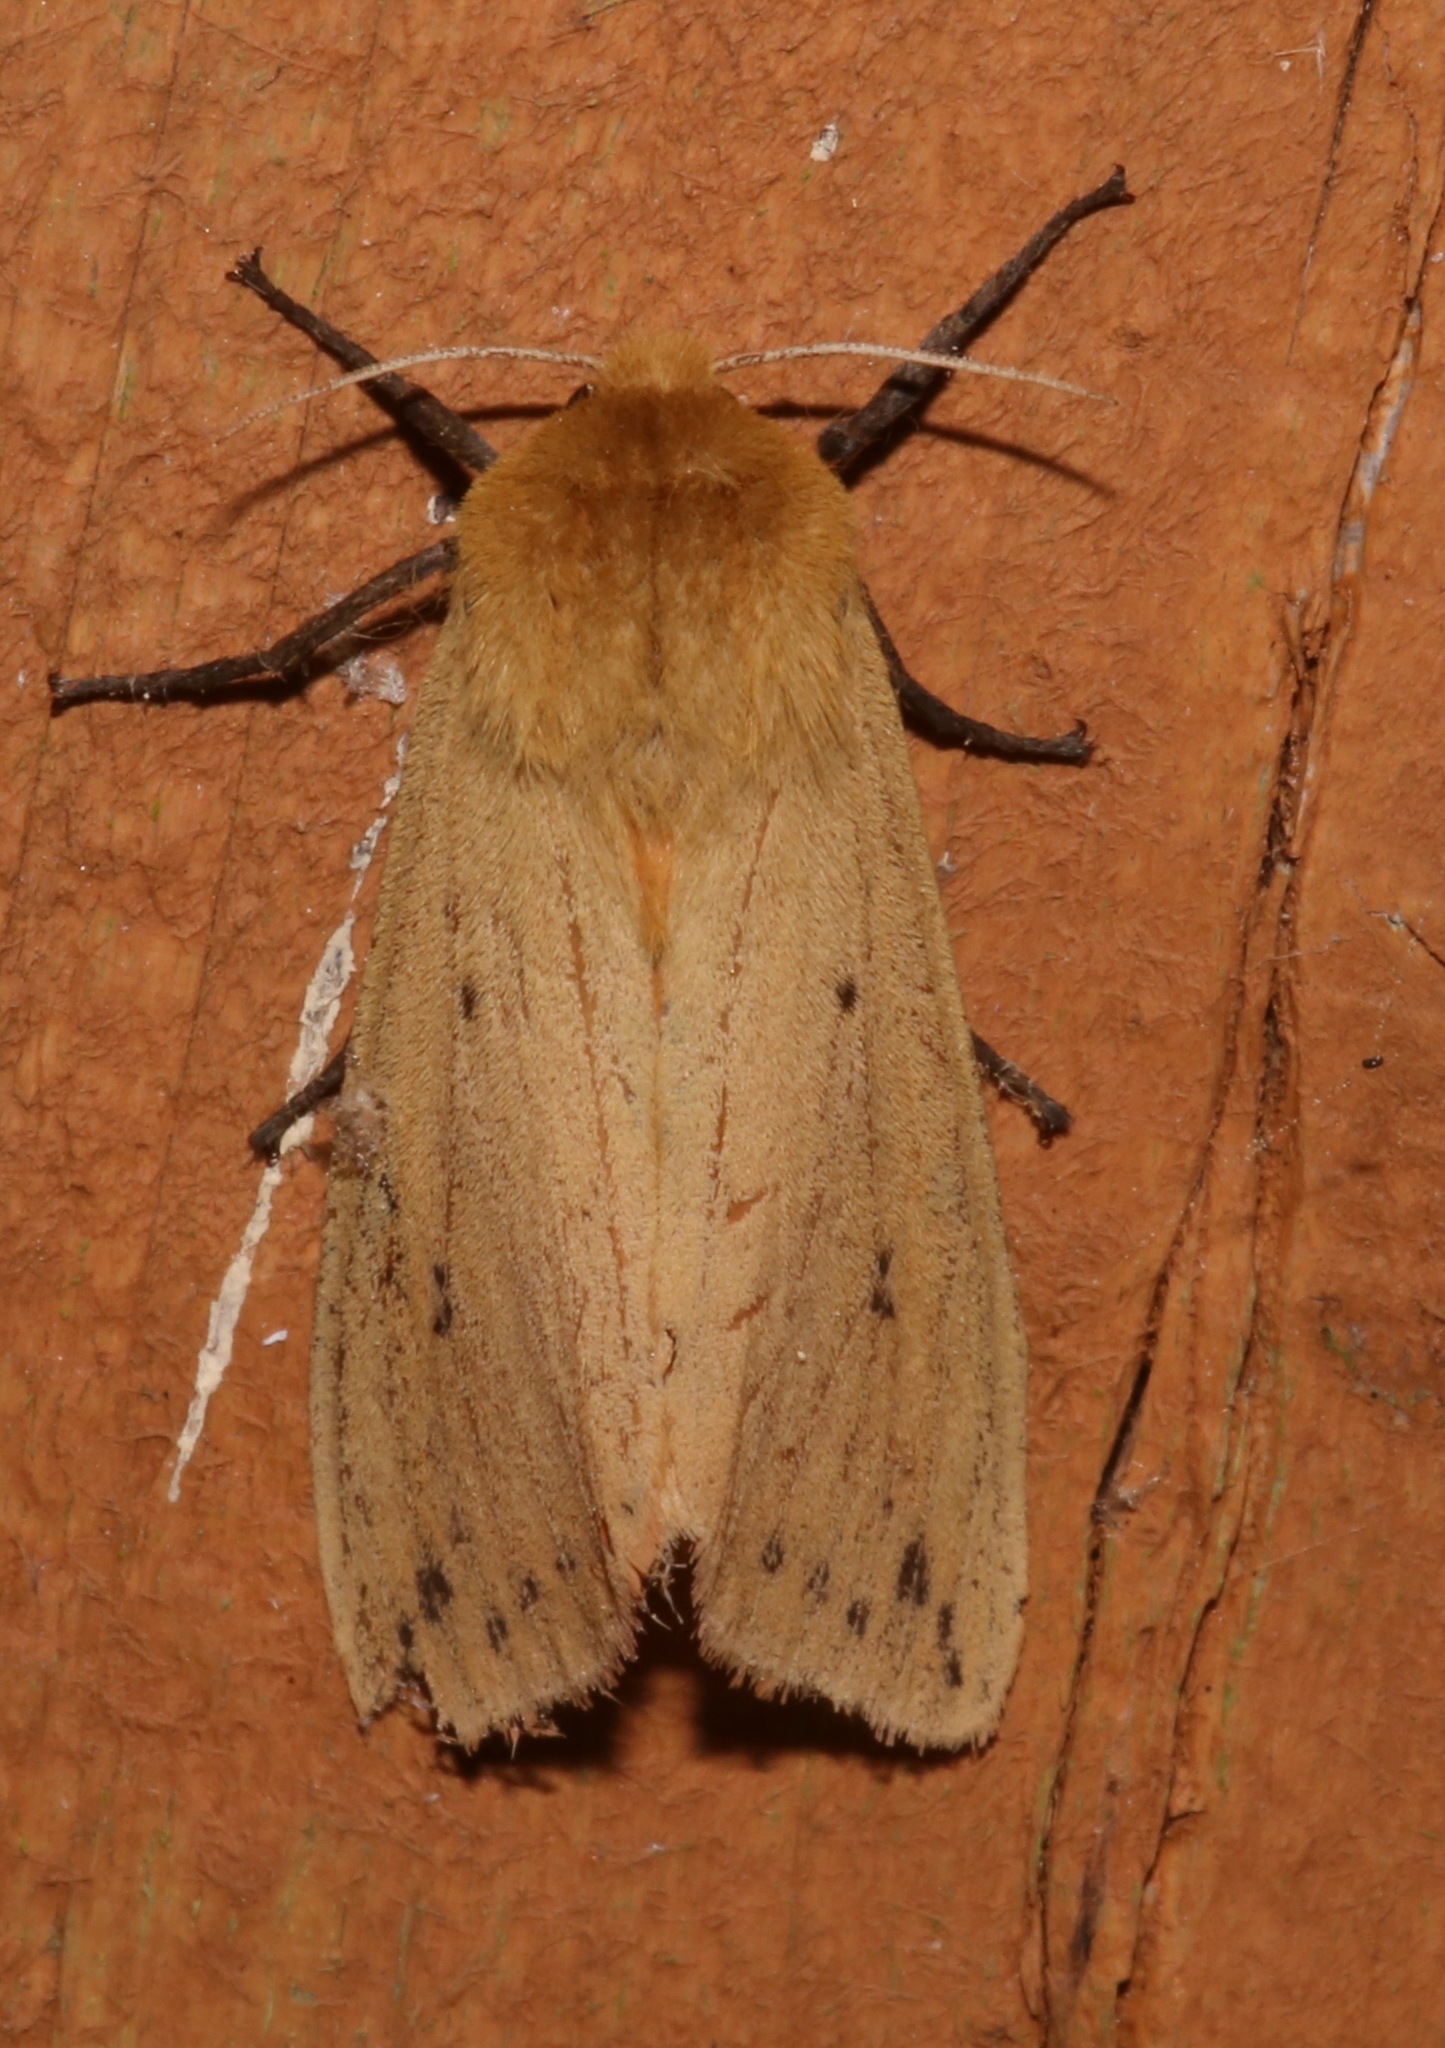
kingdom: Animalia
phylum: Arthropoda
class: Insecta
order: Lepidoptera
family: Erebidae
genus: Pyrrharctia
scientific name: Pyrrharctia isabella
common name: Isabella tiger moth
